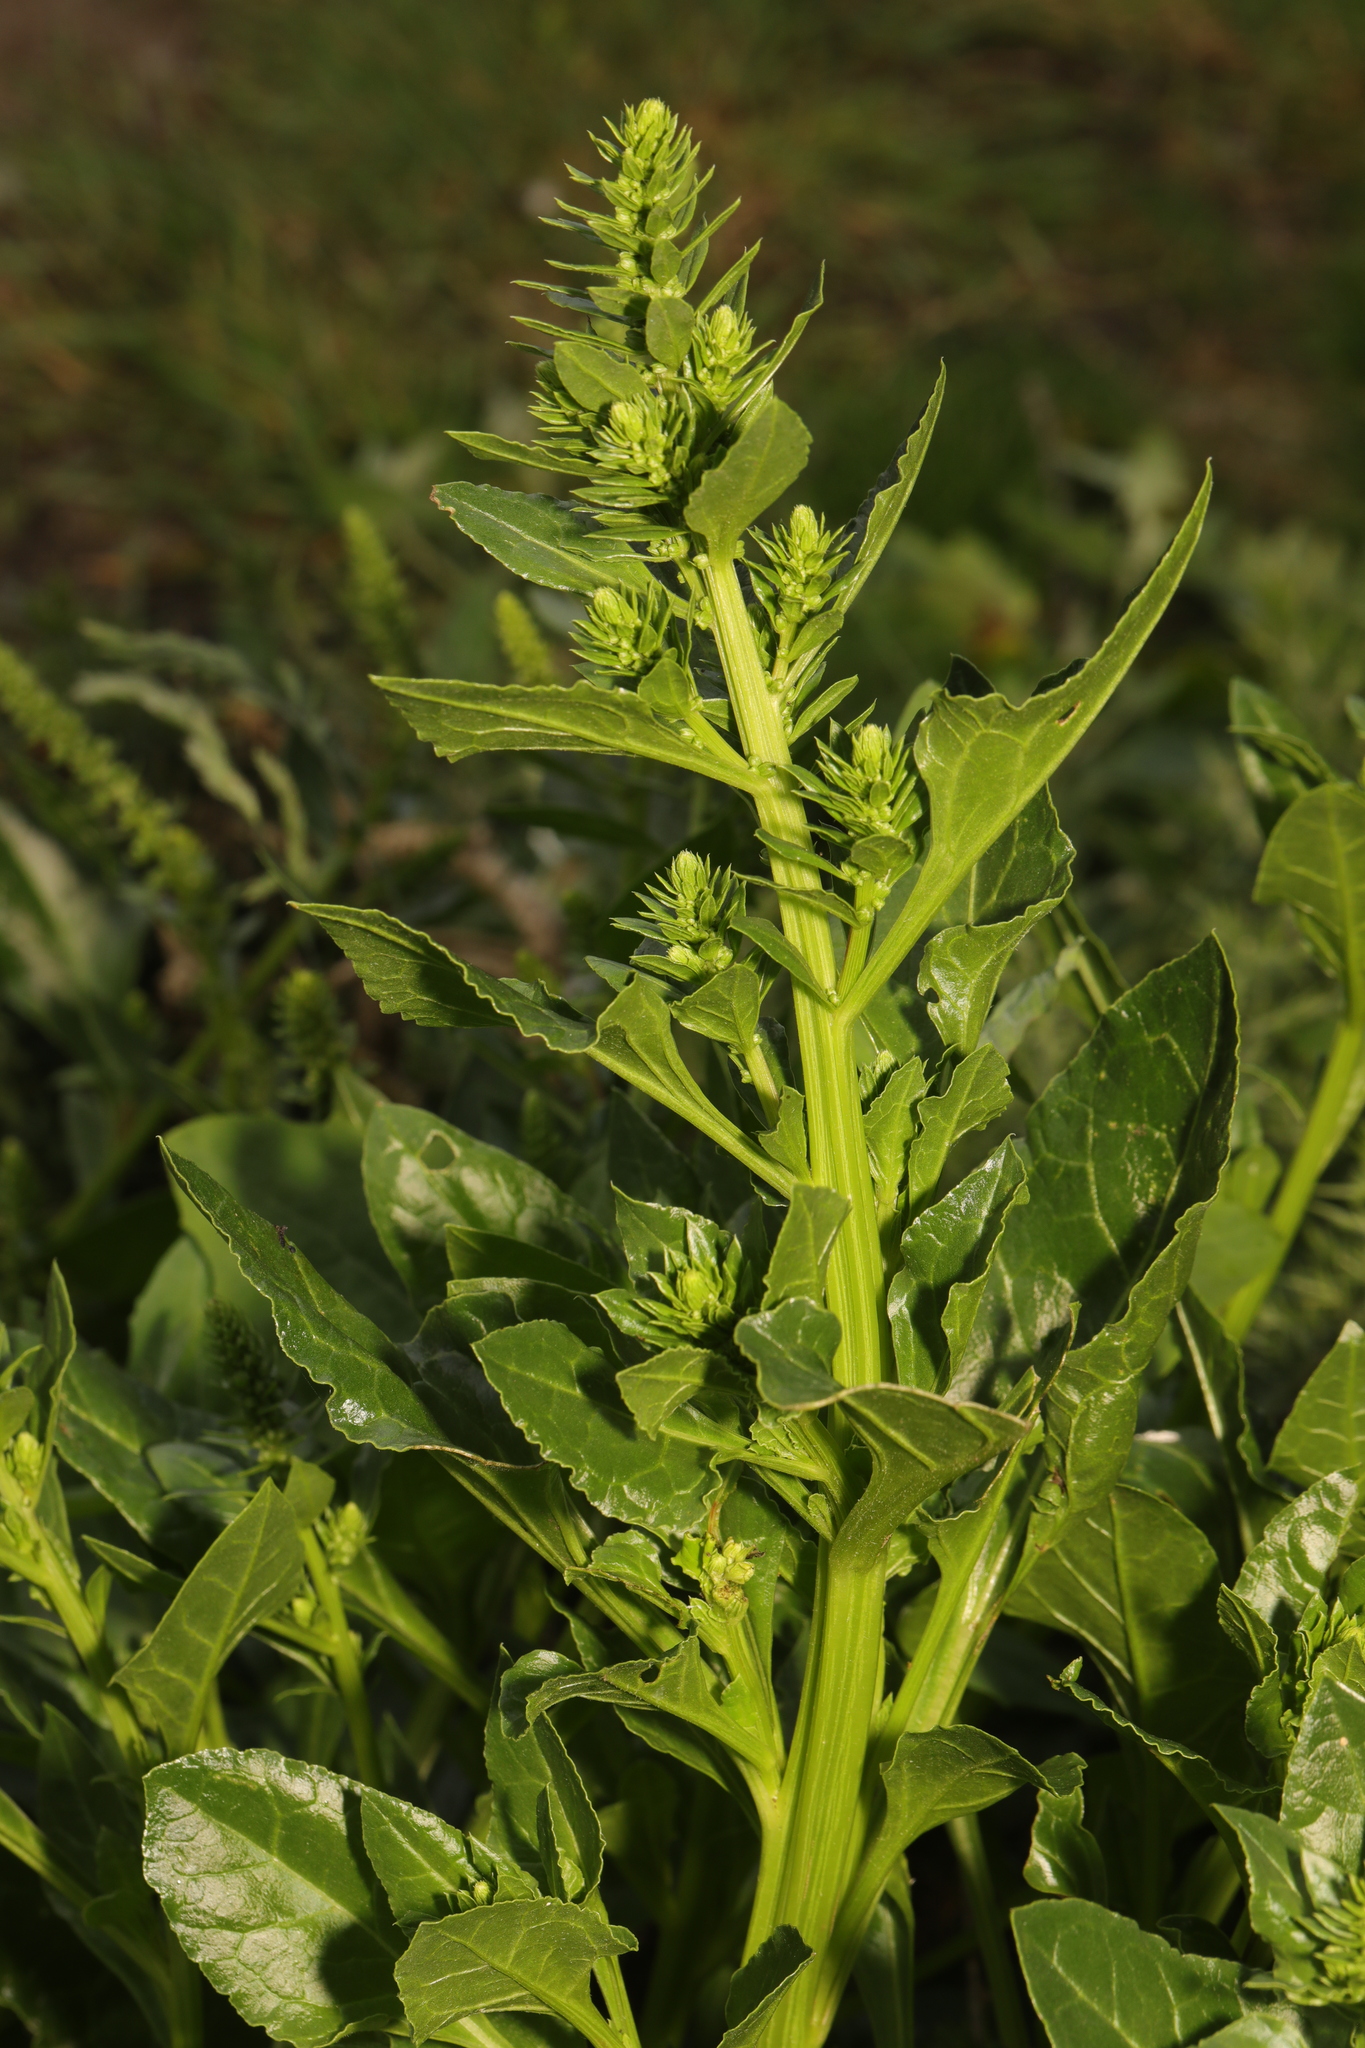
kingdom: Plantae
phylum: Tracheophyta
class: Magnoliopsida
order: Caryophyllales
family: Amaranthaceae
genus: Beta
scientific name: Beta vulgaris
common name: Beet
